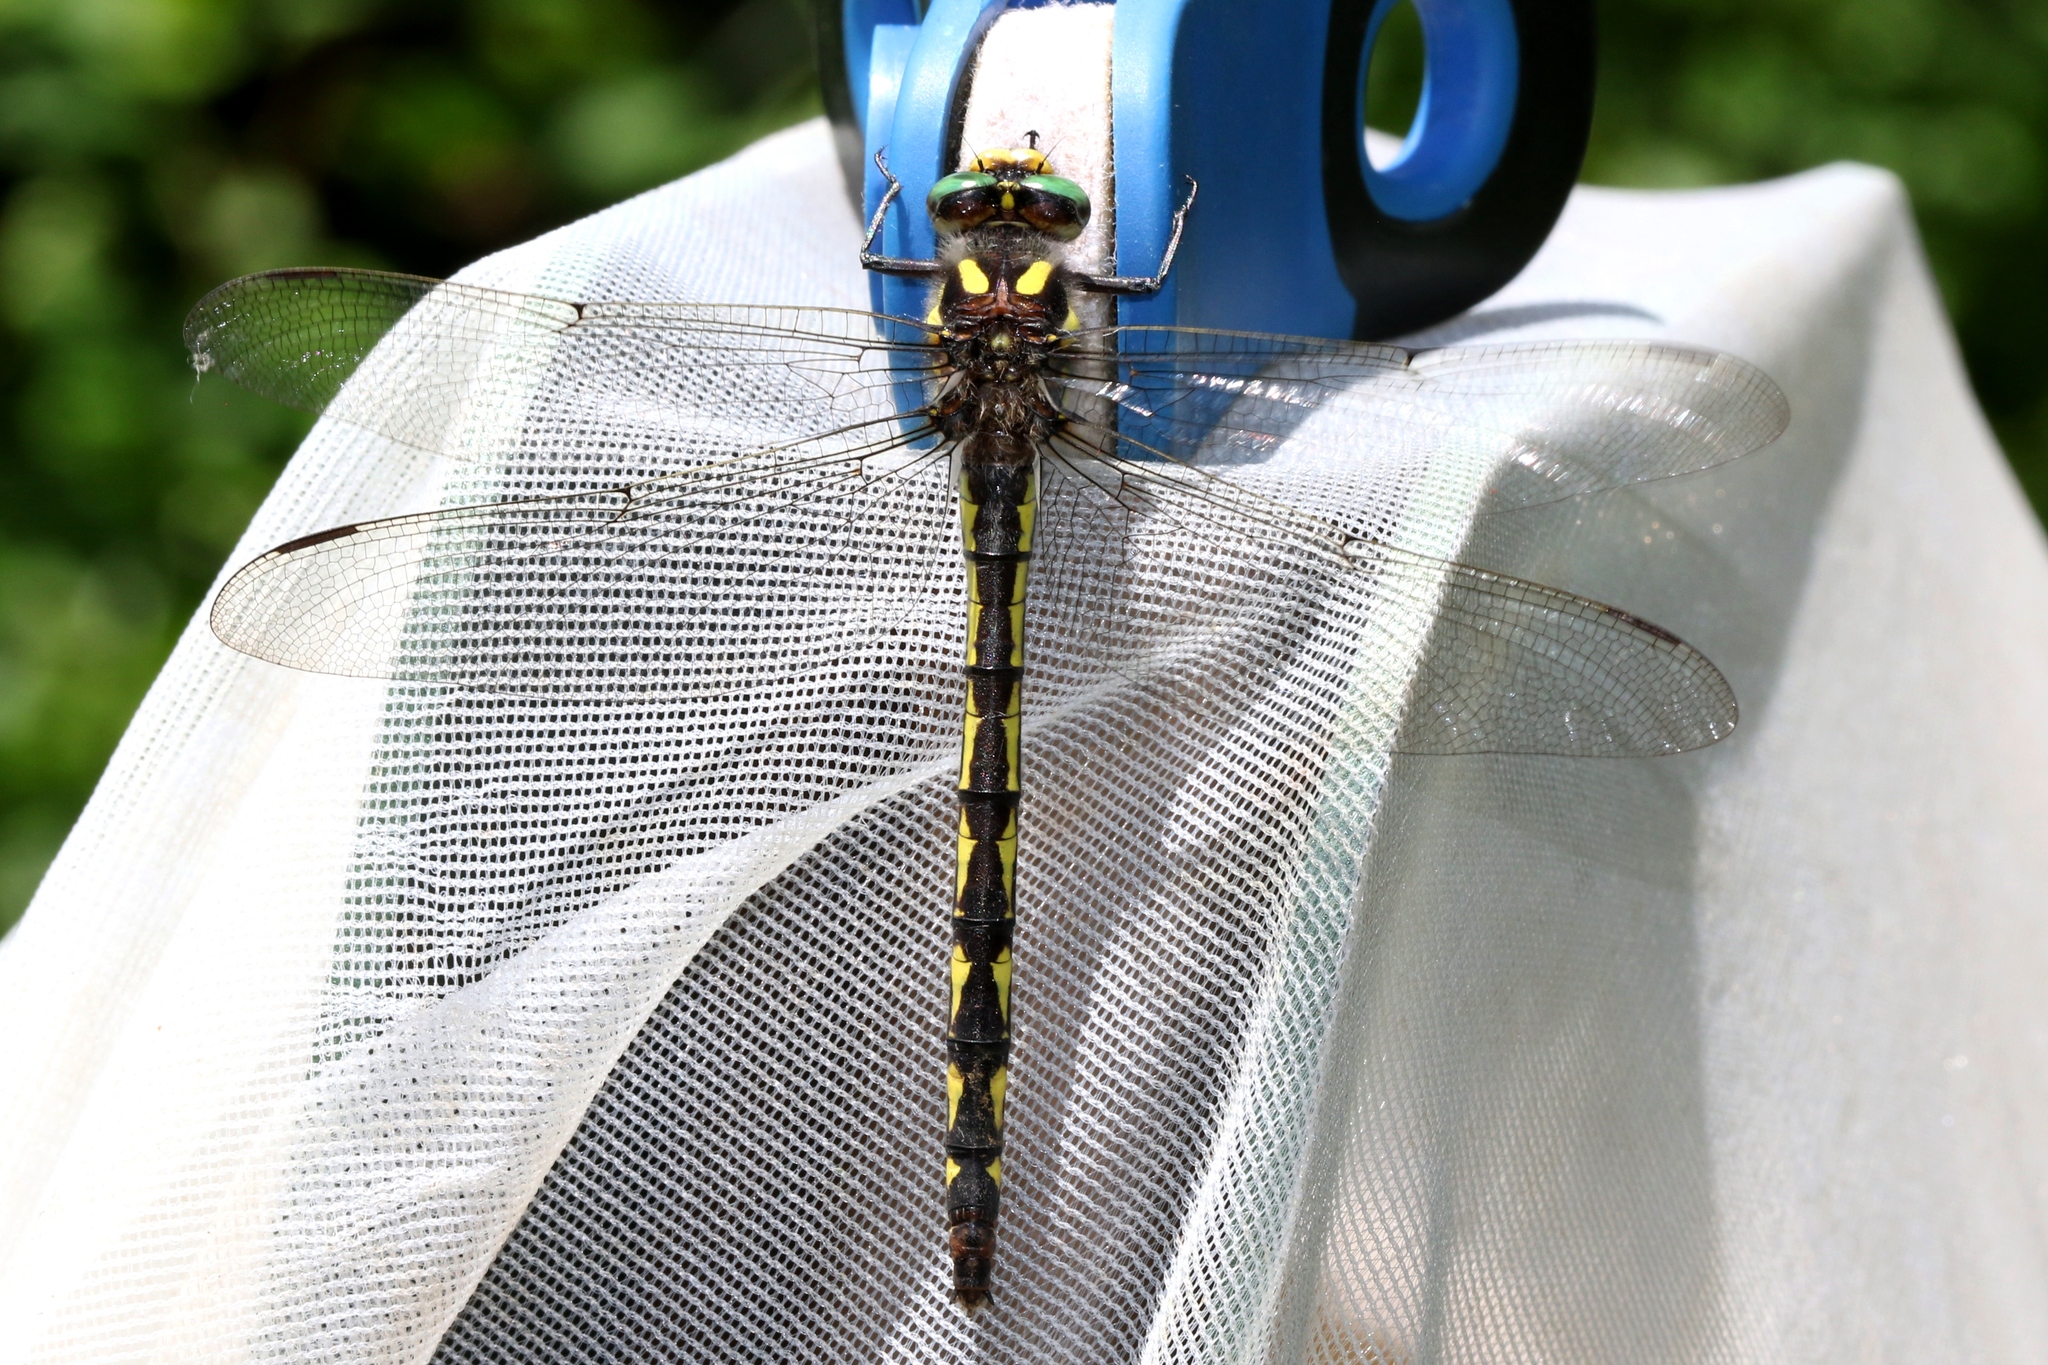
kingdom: Animalia
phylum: Arthropoda
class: Insecta
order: Odonata
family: Cordulegastridae
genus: Cordulegaster
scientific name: Cordulegaster diastatops
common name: Delta-spotted spiketail
